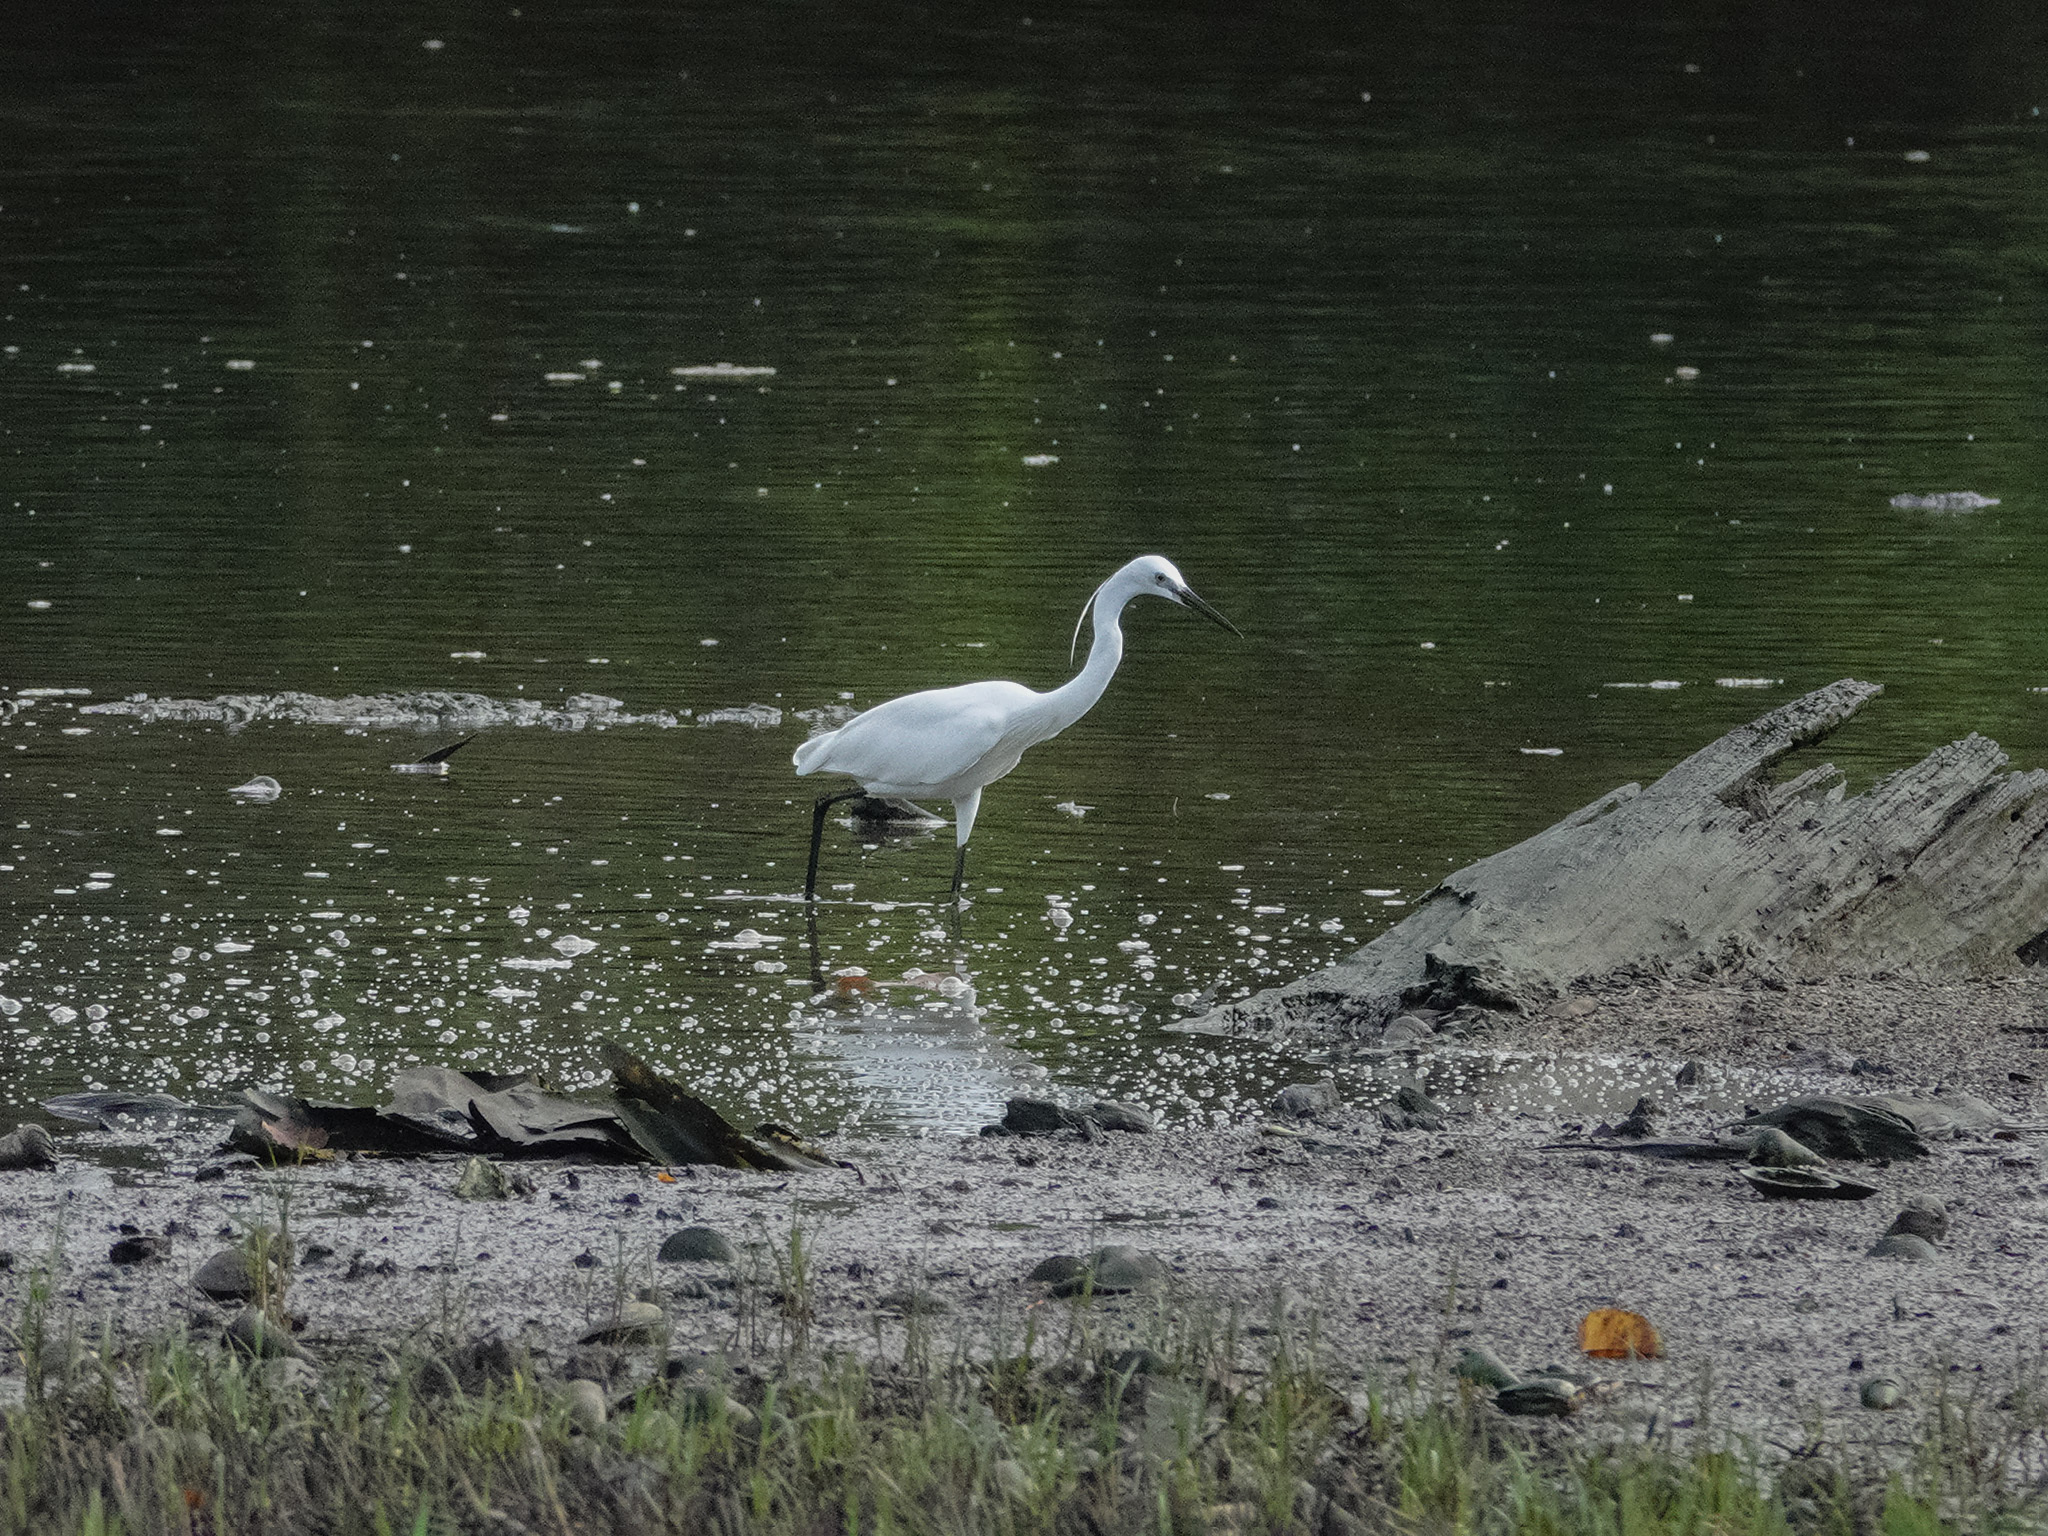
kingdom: Animalia
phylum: Chordata
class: Aves
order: Pelecaniformes
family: Ardeidae
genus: Egretta
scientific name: Egretta garzetta
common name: Little egret
